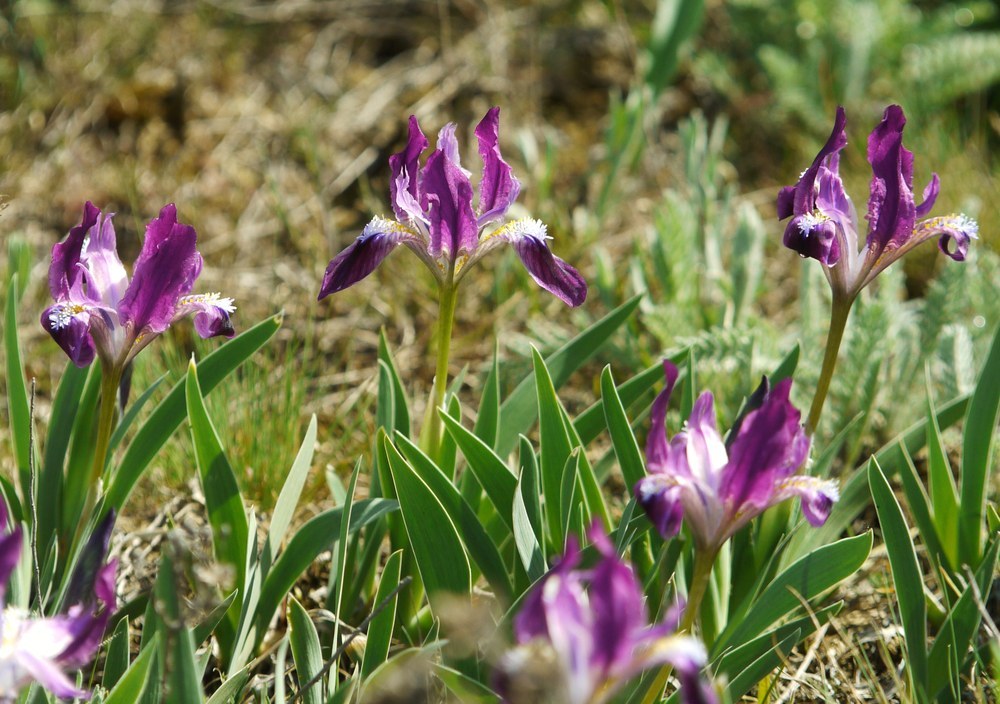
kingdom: Plantae
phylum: Tracheophyta
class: Liliopsida
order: Asparagales
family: Iridaceae
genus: Iris
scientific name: Iris pumila
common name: Dwarf iris
